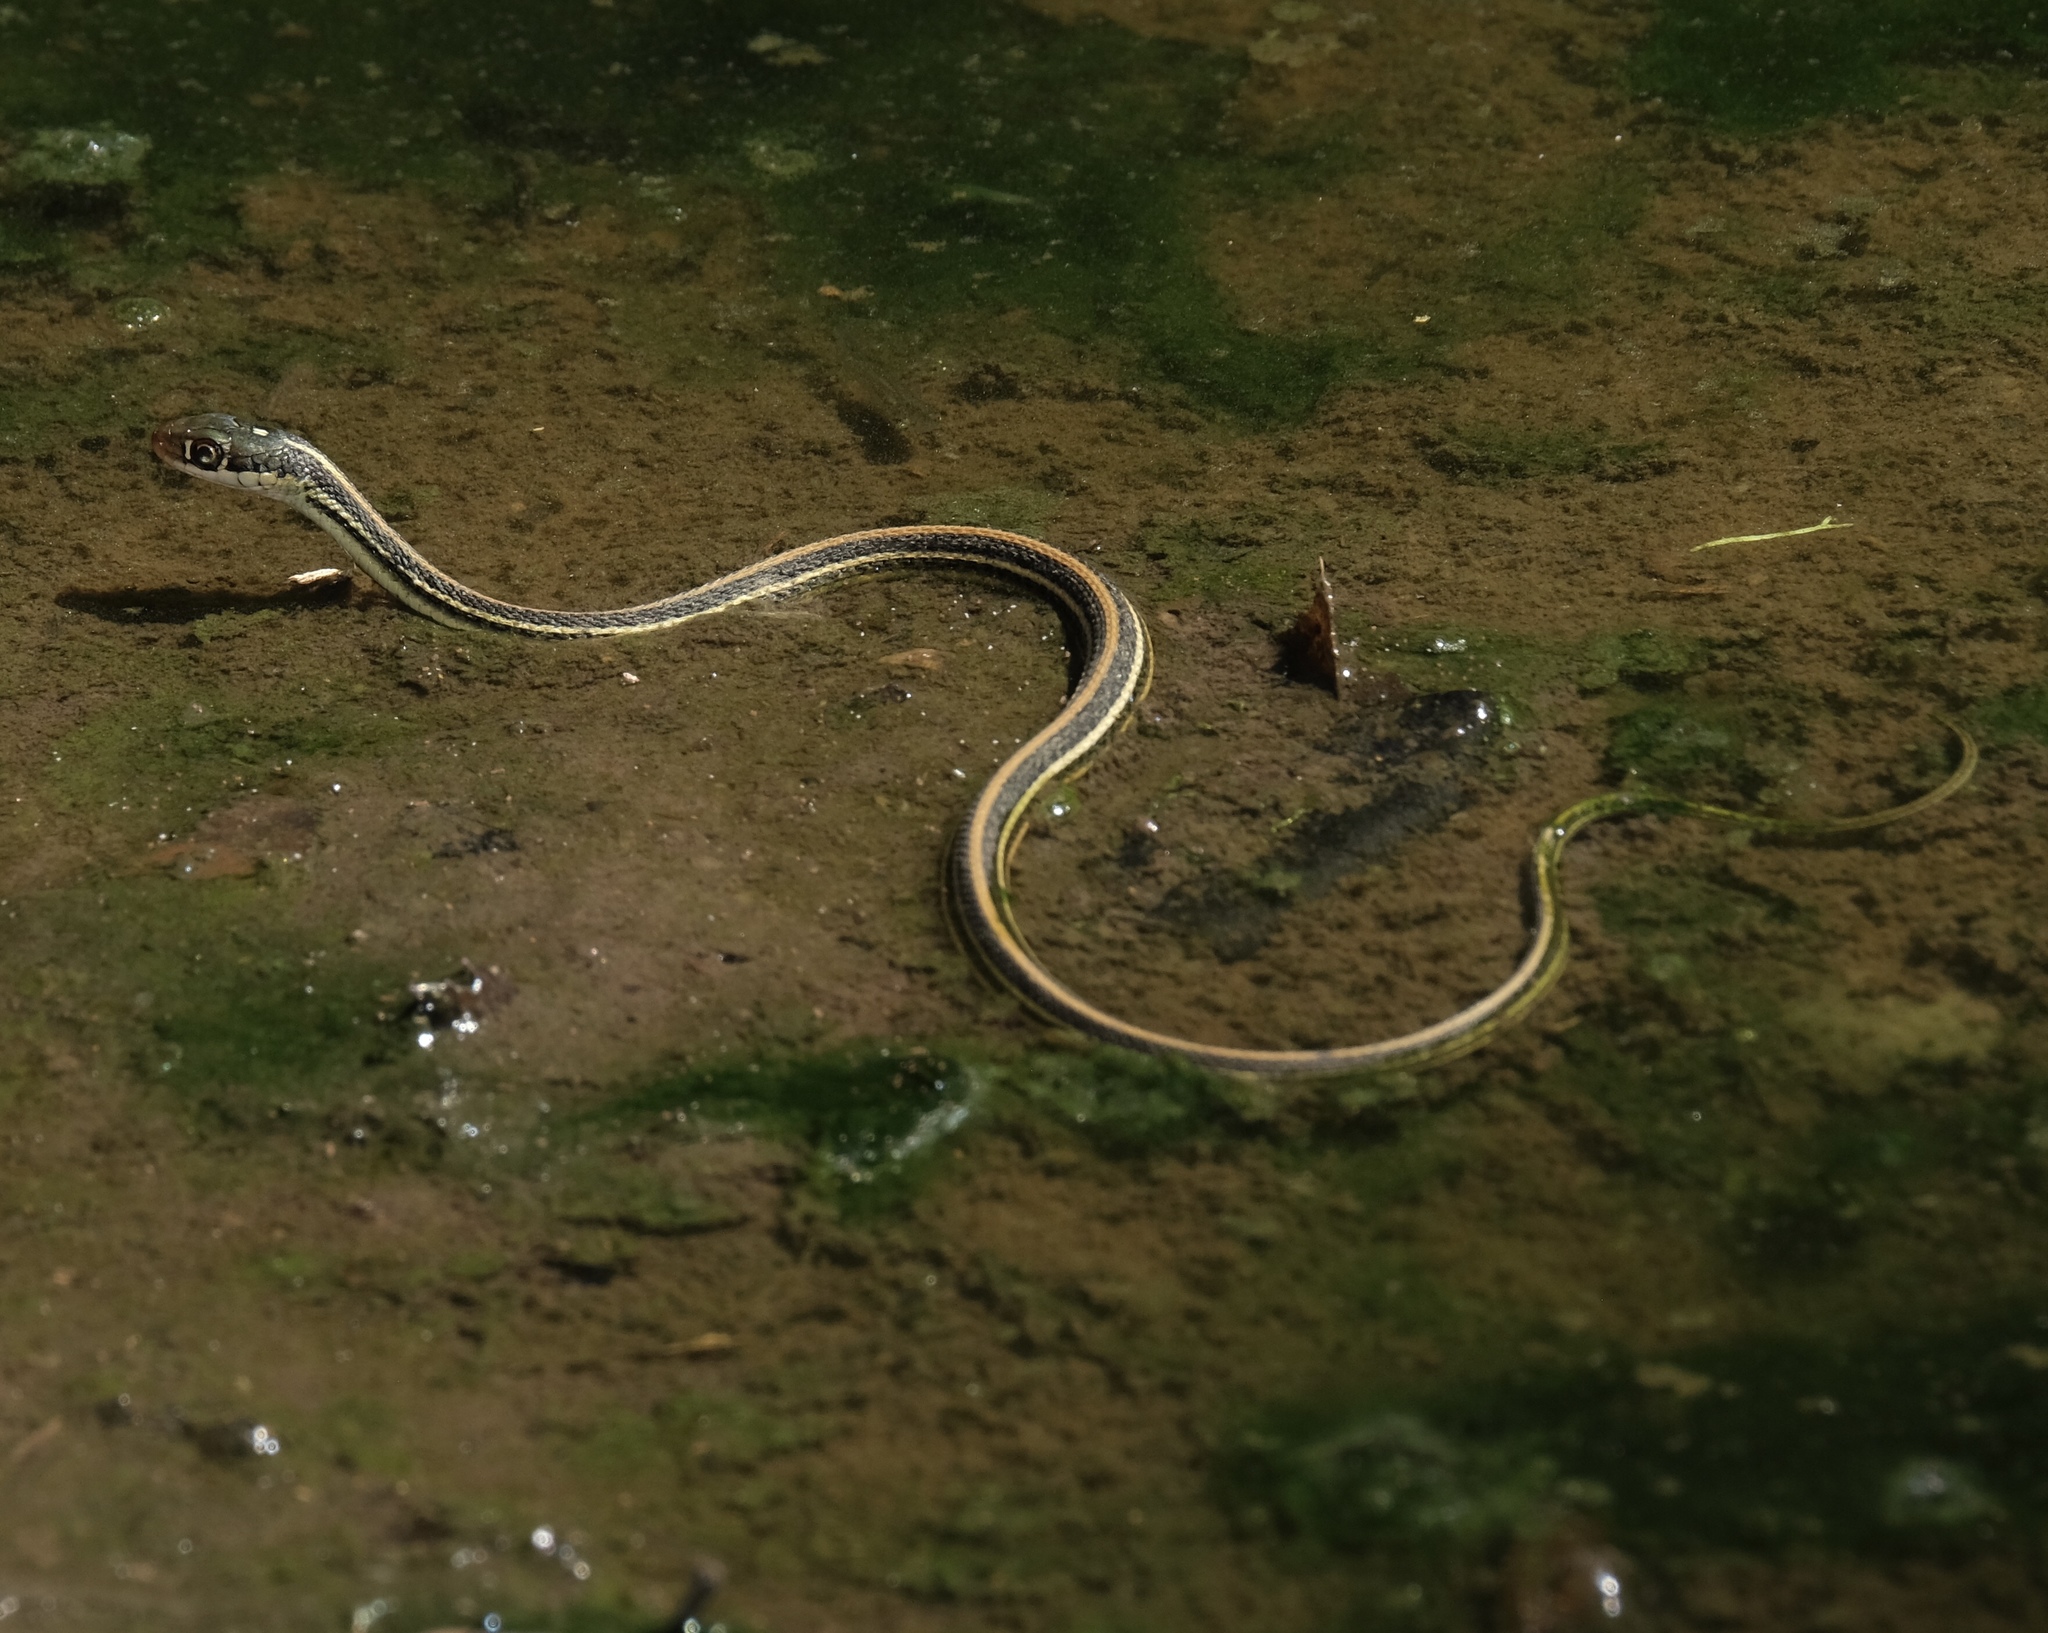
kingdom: Animalia
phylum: Chordata
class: Squamata
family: Colubridae
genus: Thamnophis
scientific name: Thamnophis proximus
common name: Western ribbon snake
